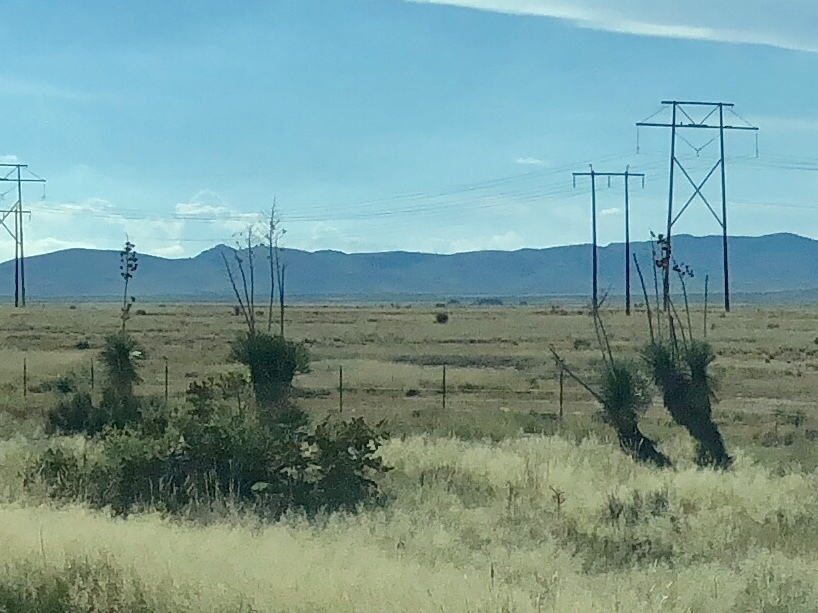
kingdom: Plantae
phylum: Tracheophyta
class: Liliopsida
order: Asparagales
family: Asparagaceae
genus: Yucca
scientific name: Yucca elata
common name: Palmella
